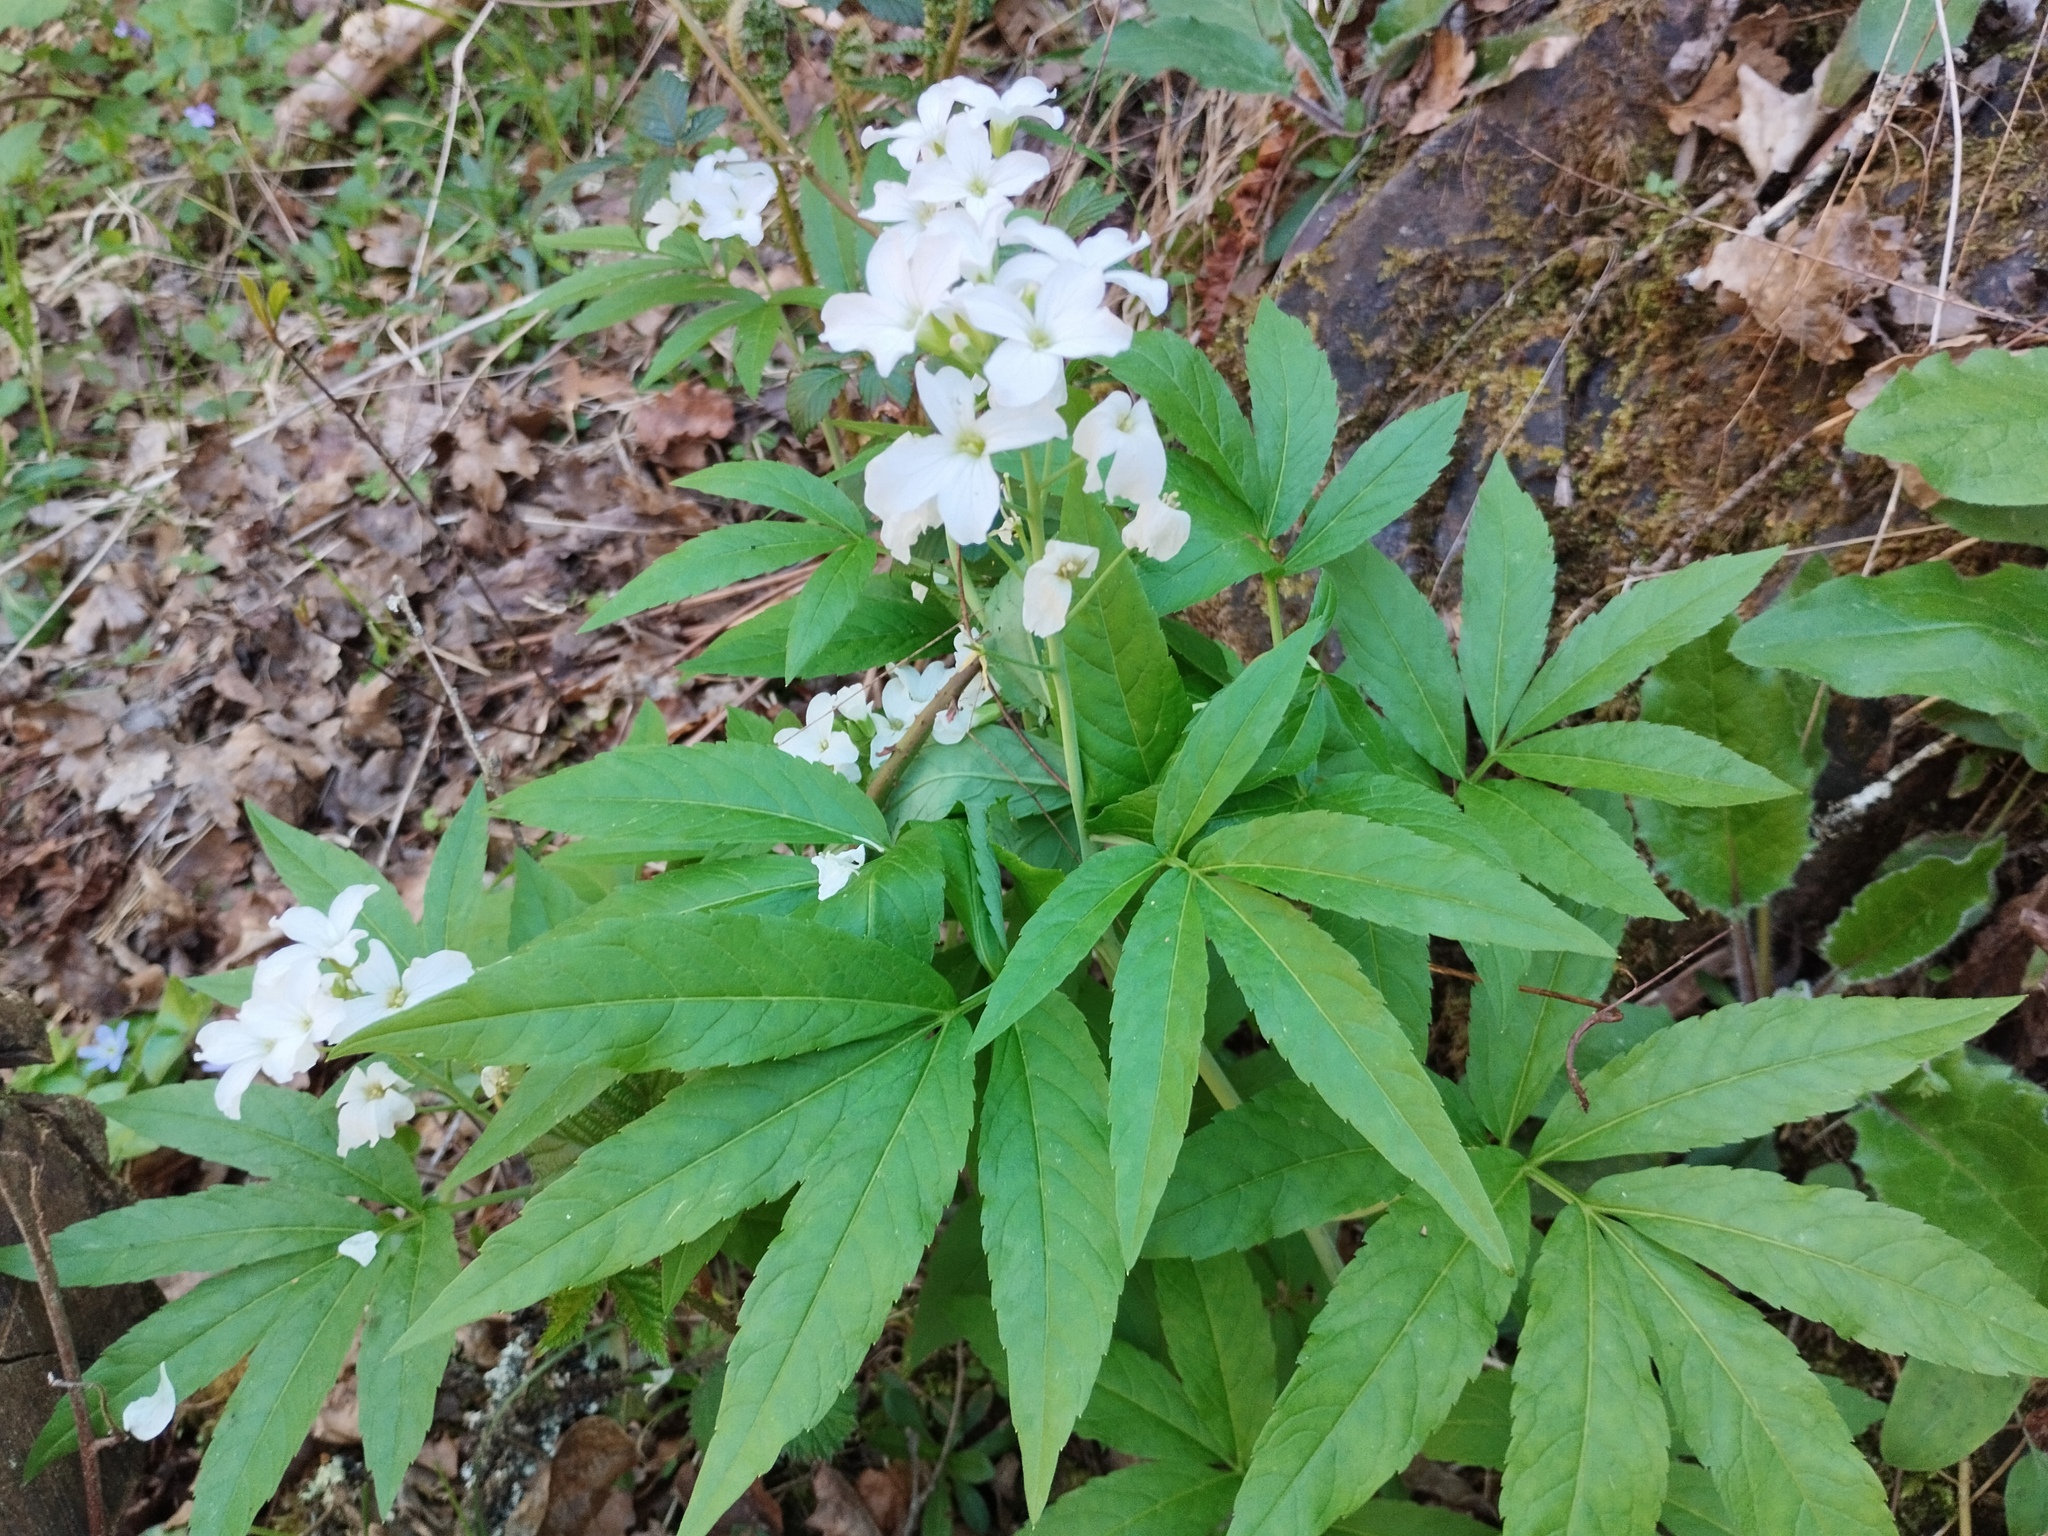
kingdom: Plantae
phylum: Tracheophyta
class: Magnoliopsida
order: Brassicales
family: Brassicaceae
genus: Cardamine
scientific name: Cardamine heptaphylla
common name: Pinnate coralroot
